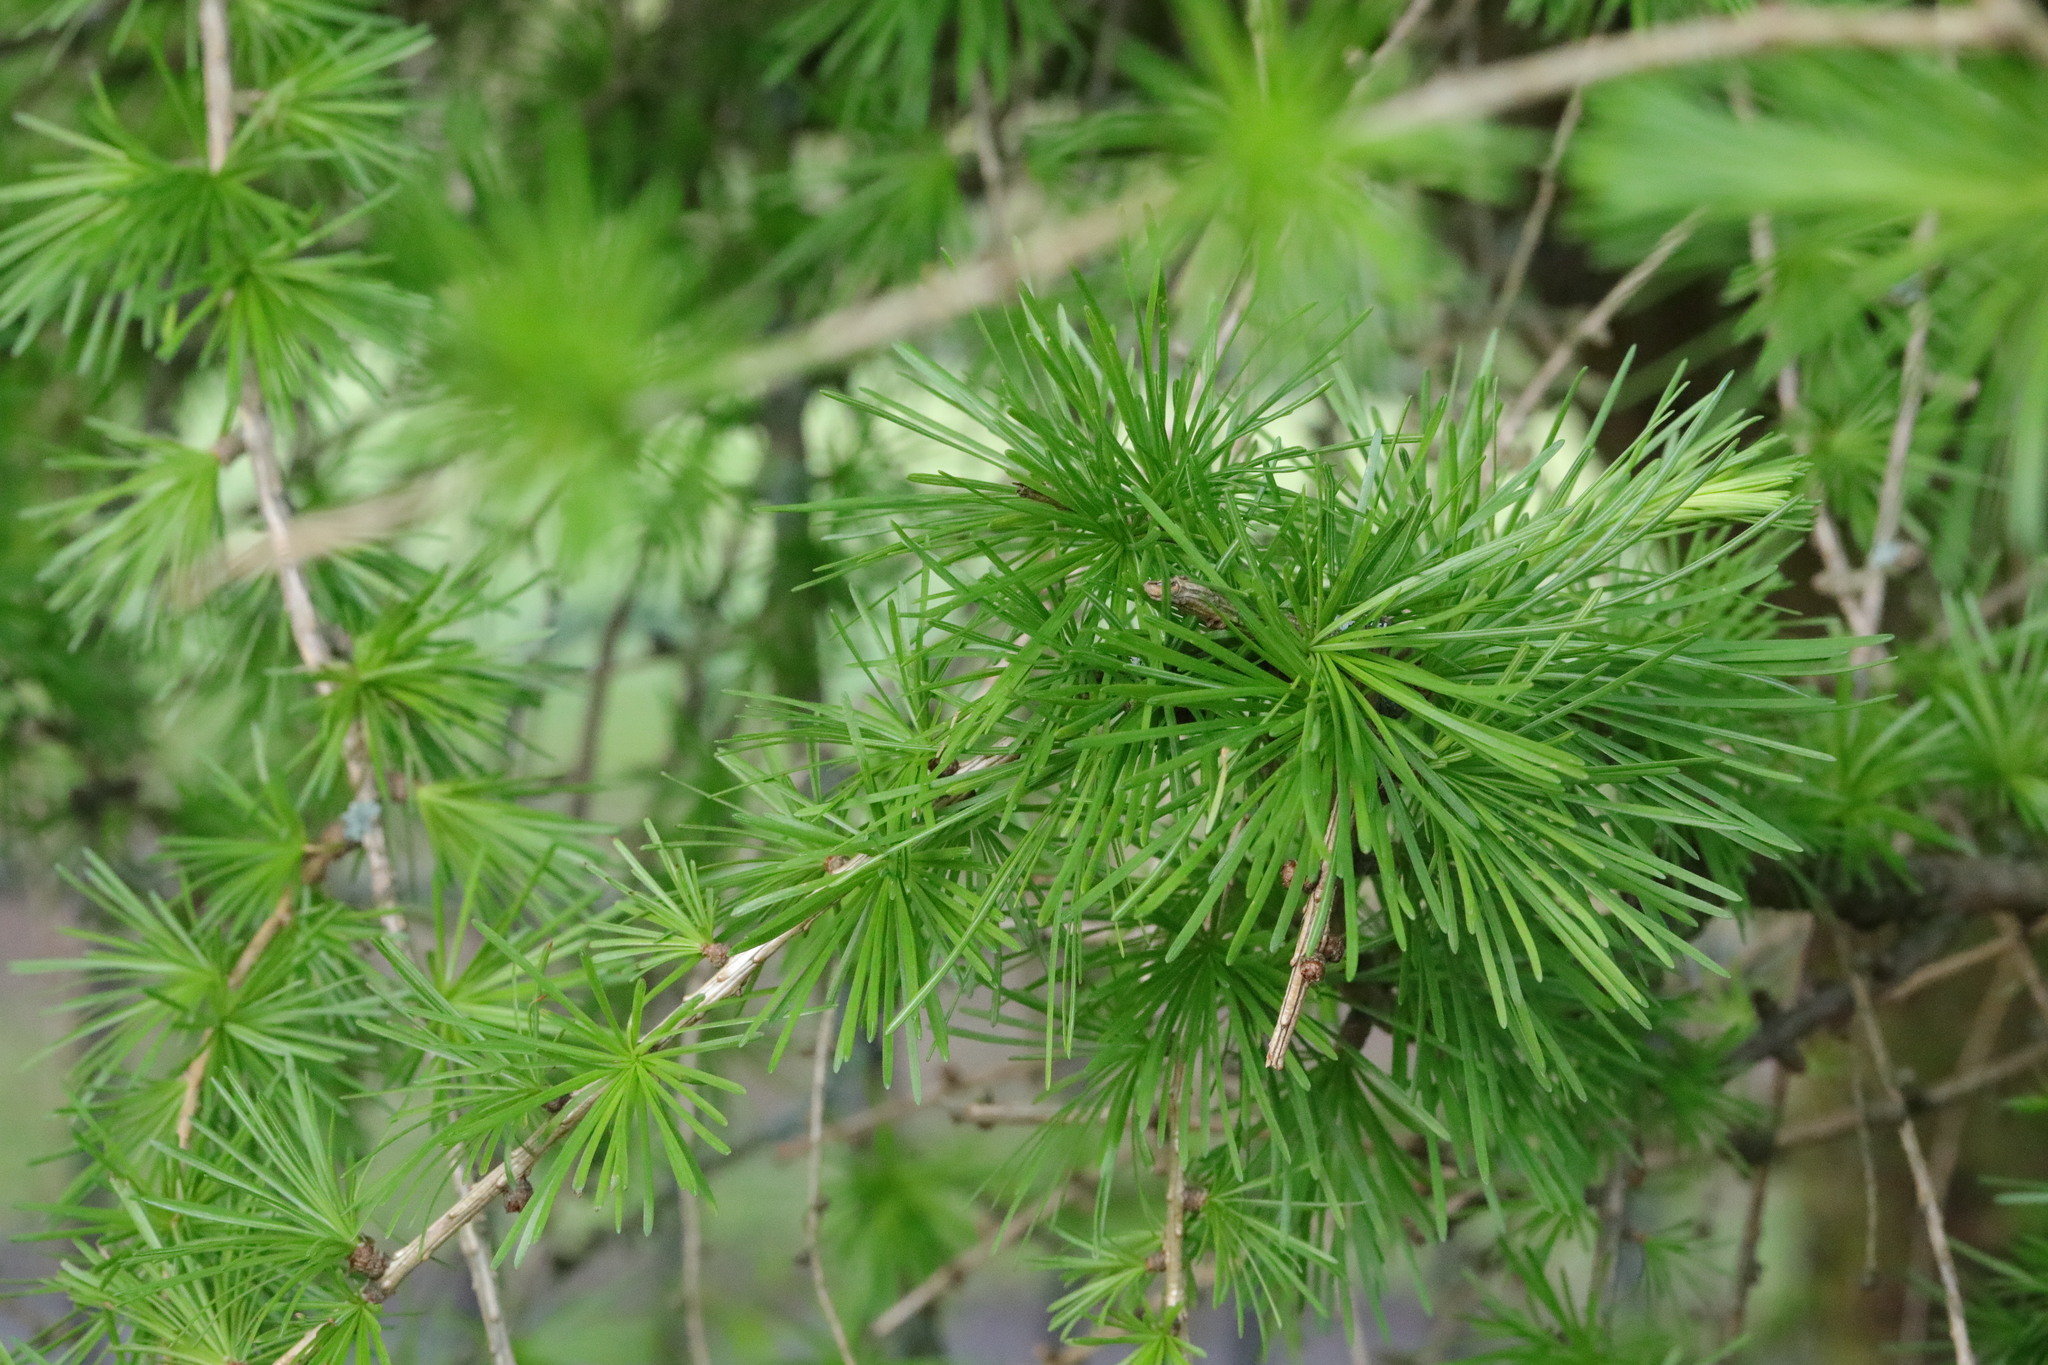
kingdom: Plantae
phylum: Tracheophyta
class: Pinopsida
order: Pinales
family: Pinaceae
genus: Larix
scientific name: Larix decidua
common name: European larch
